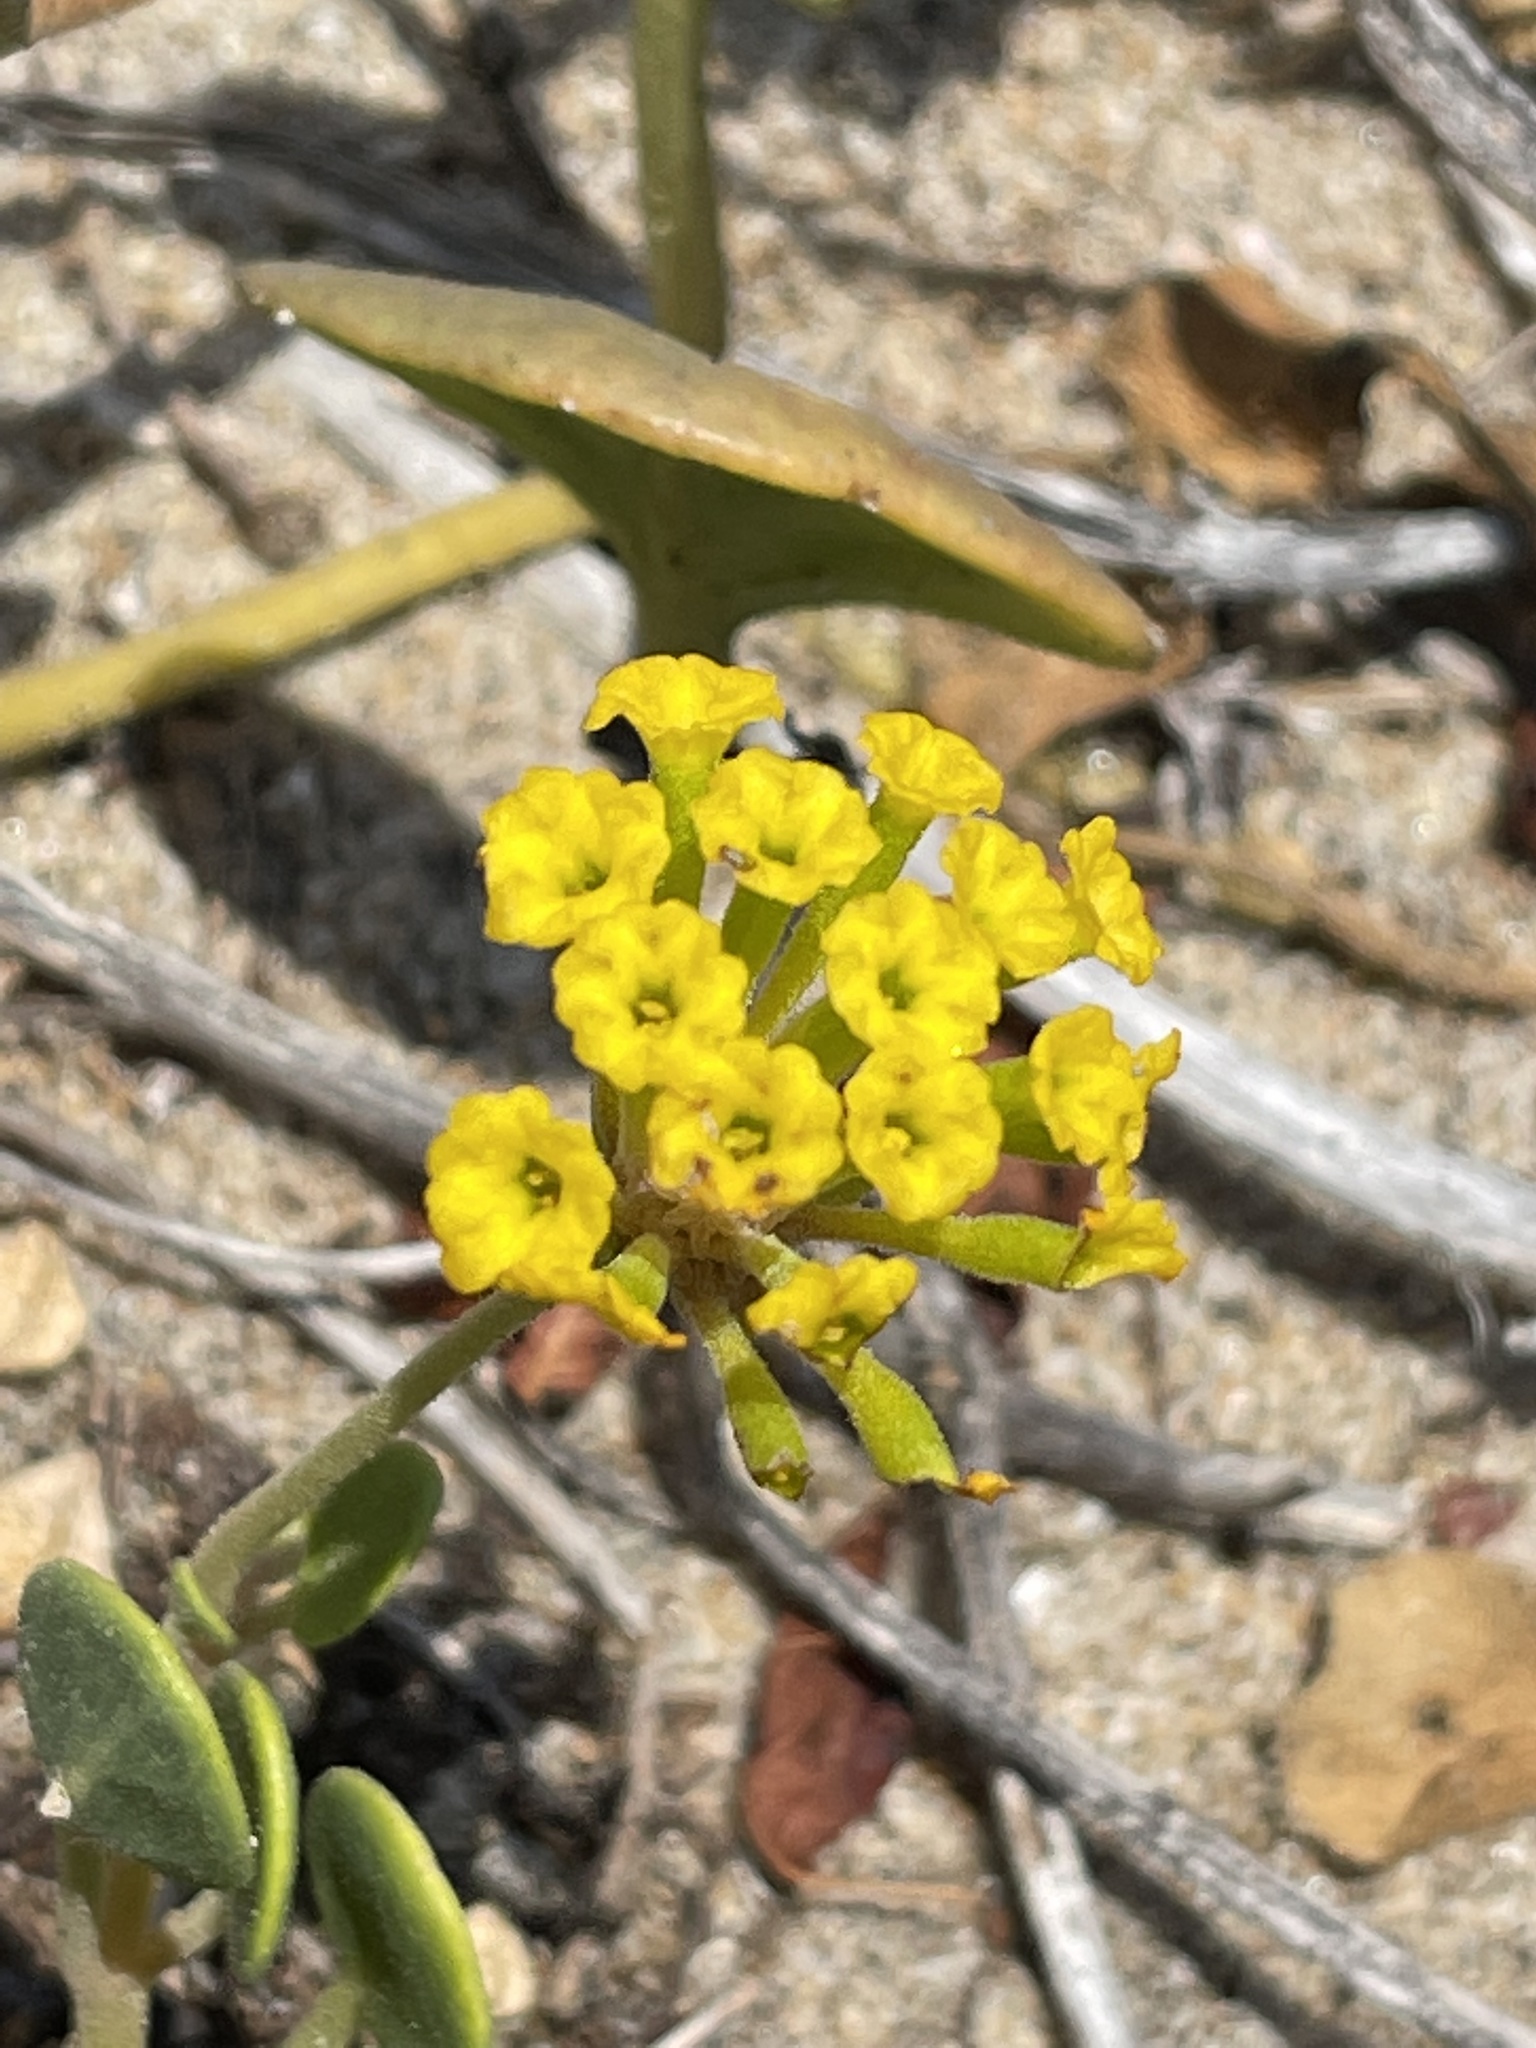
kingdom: Plantae
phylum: Tracheophyta
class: Magnoliopsida
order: Caryophyllales
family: Nyctaginaceae
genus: Abronia
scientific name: Abronia latifolia
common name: Yellow sand-verbena
